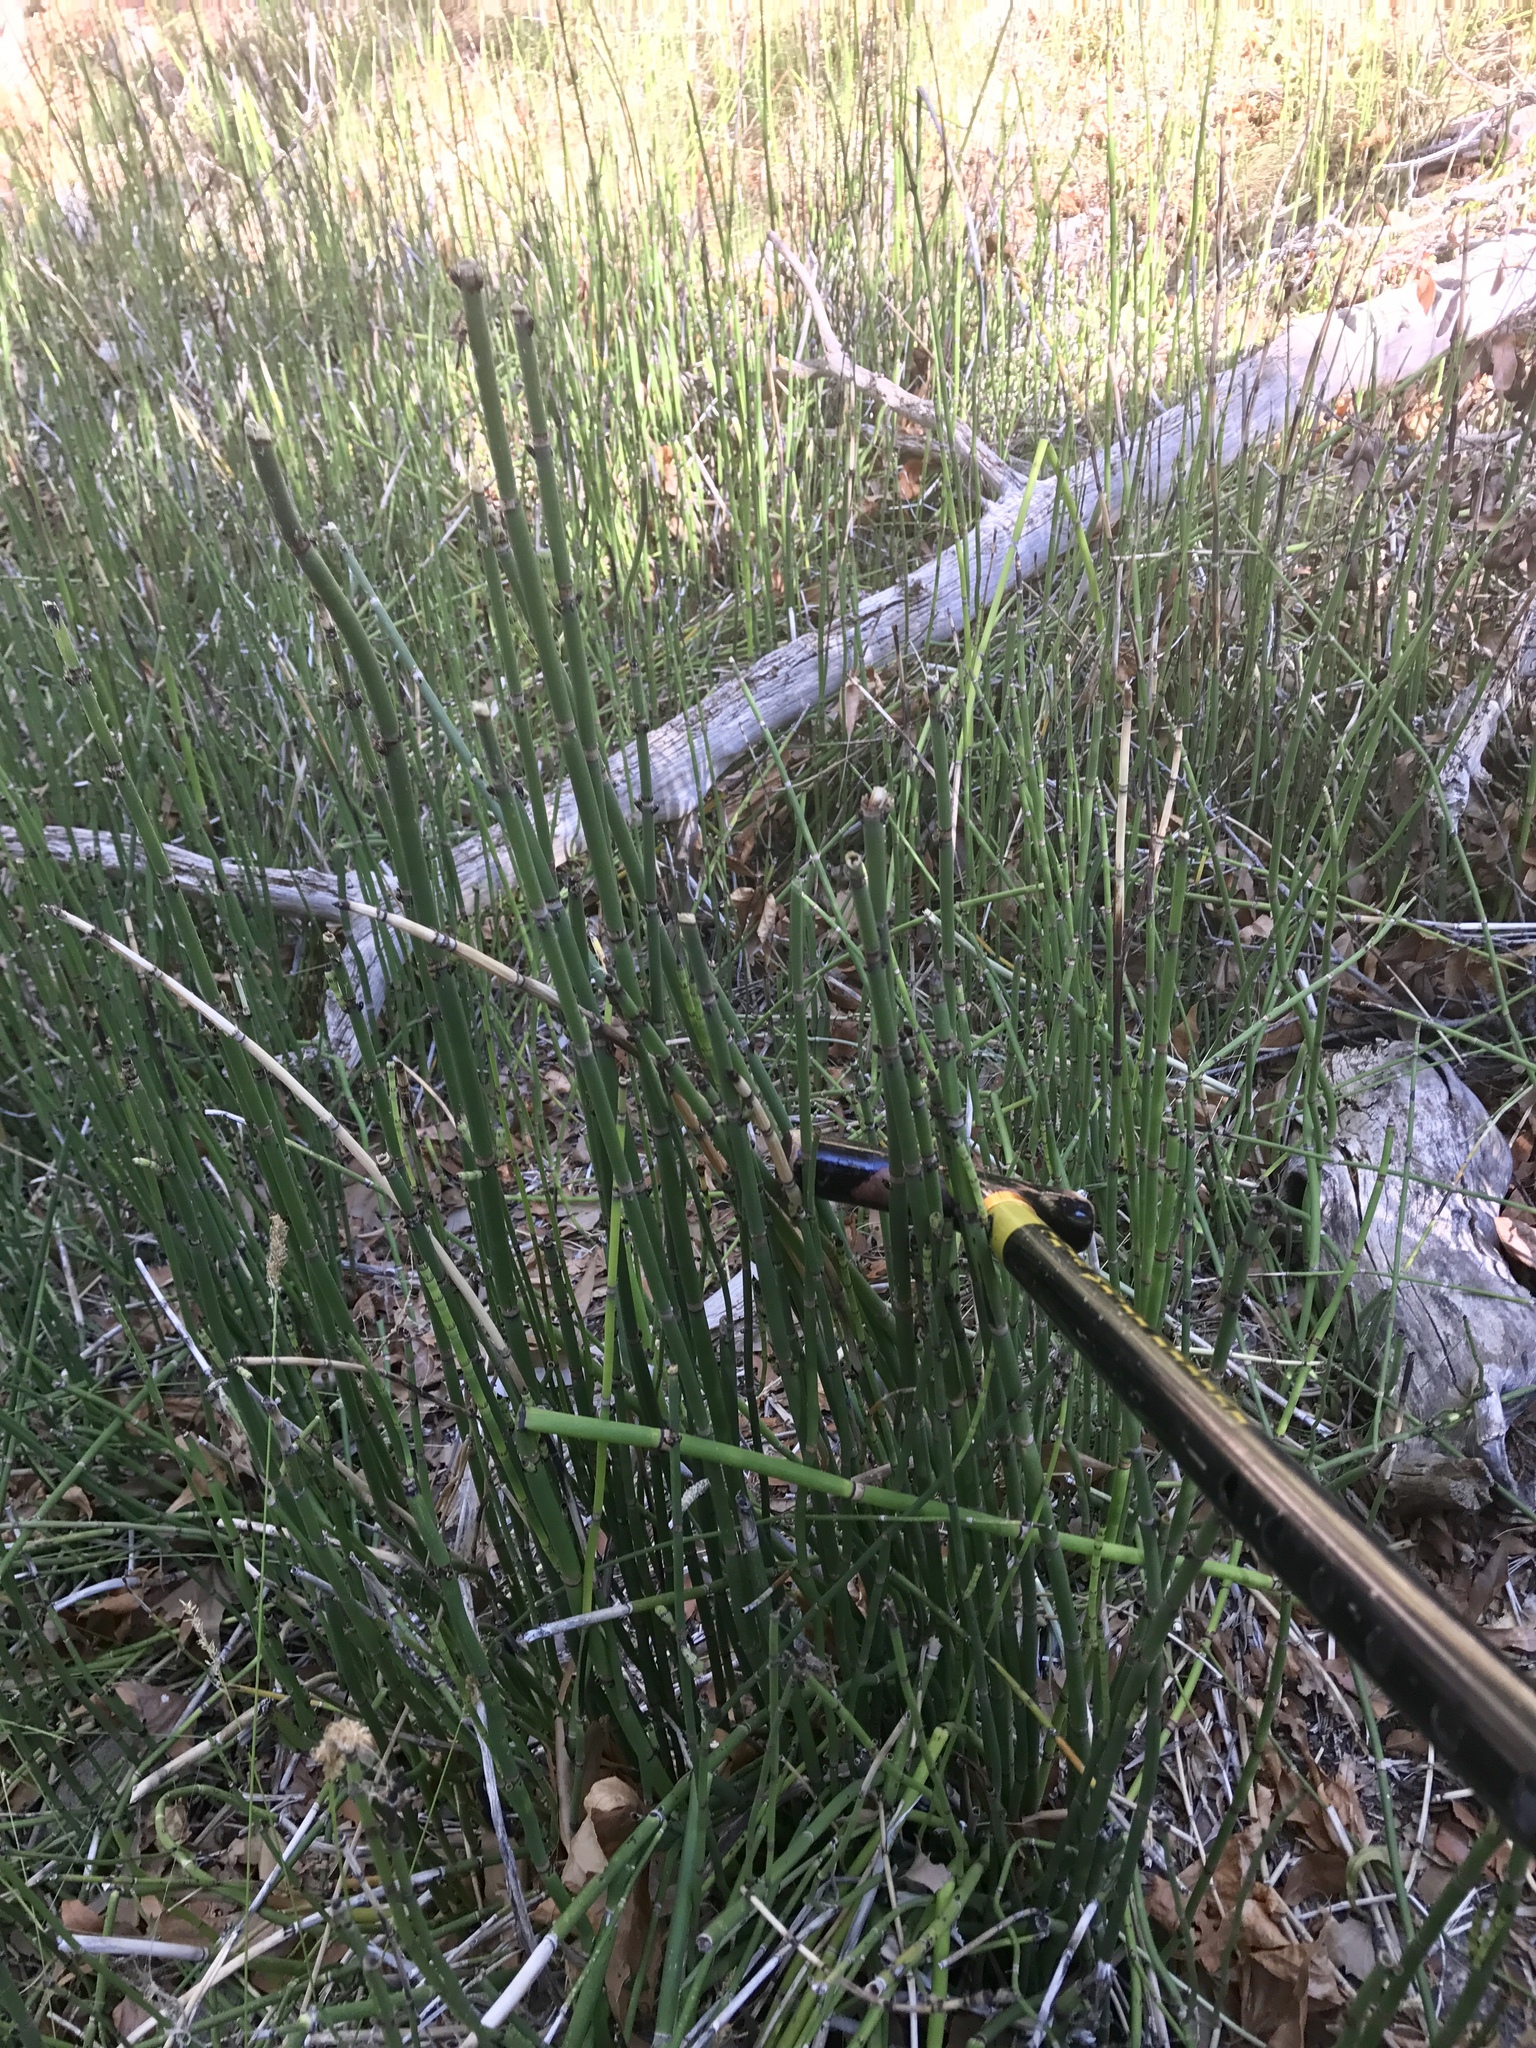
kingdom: Plantae
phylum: Tracheophyta
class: Polypodiopsida
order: Equisetales
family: Equisetaceae
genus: Equisetum
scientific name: Equisetum hyemale
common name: Rough horsetail
